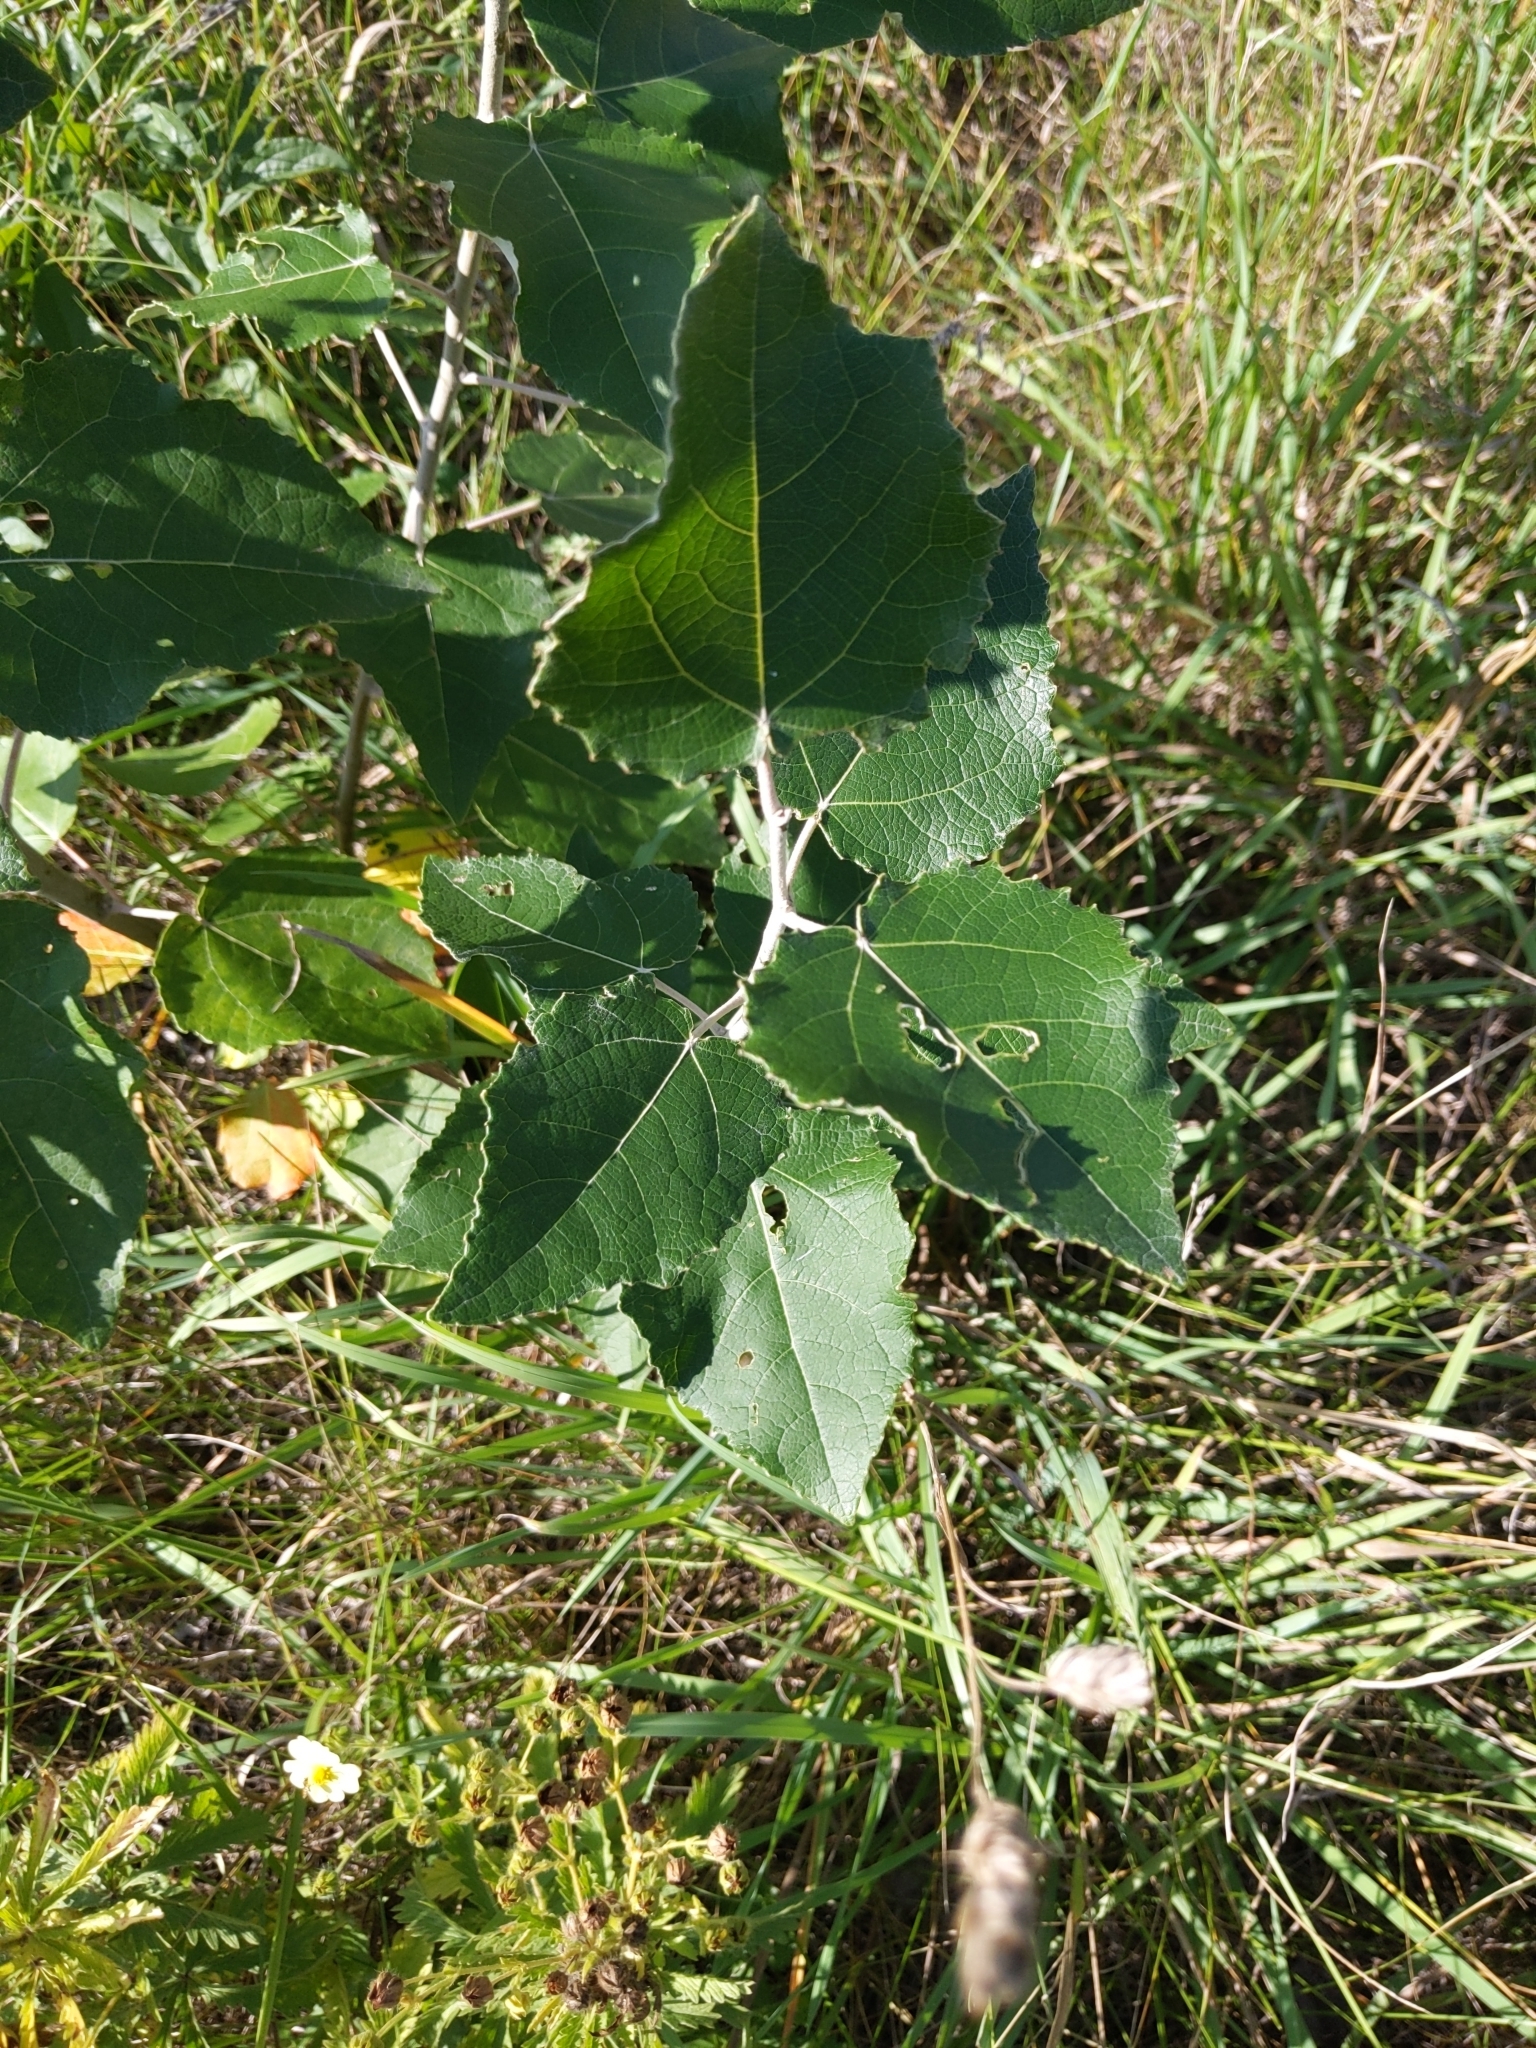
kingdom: Plantae
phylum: Tracheophyta
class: Magnoliopsida
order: Malpighiales
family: Salicaceae
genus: Populus
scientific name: Populus alba
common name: White poplar
